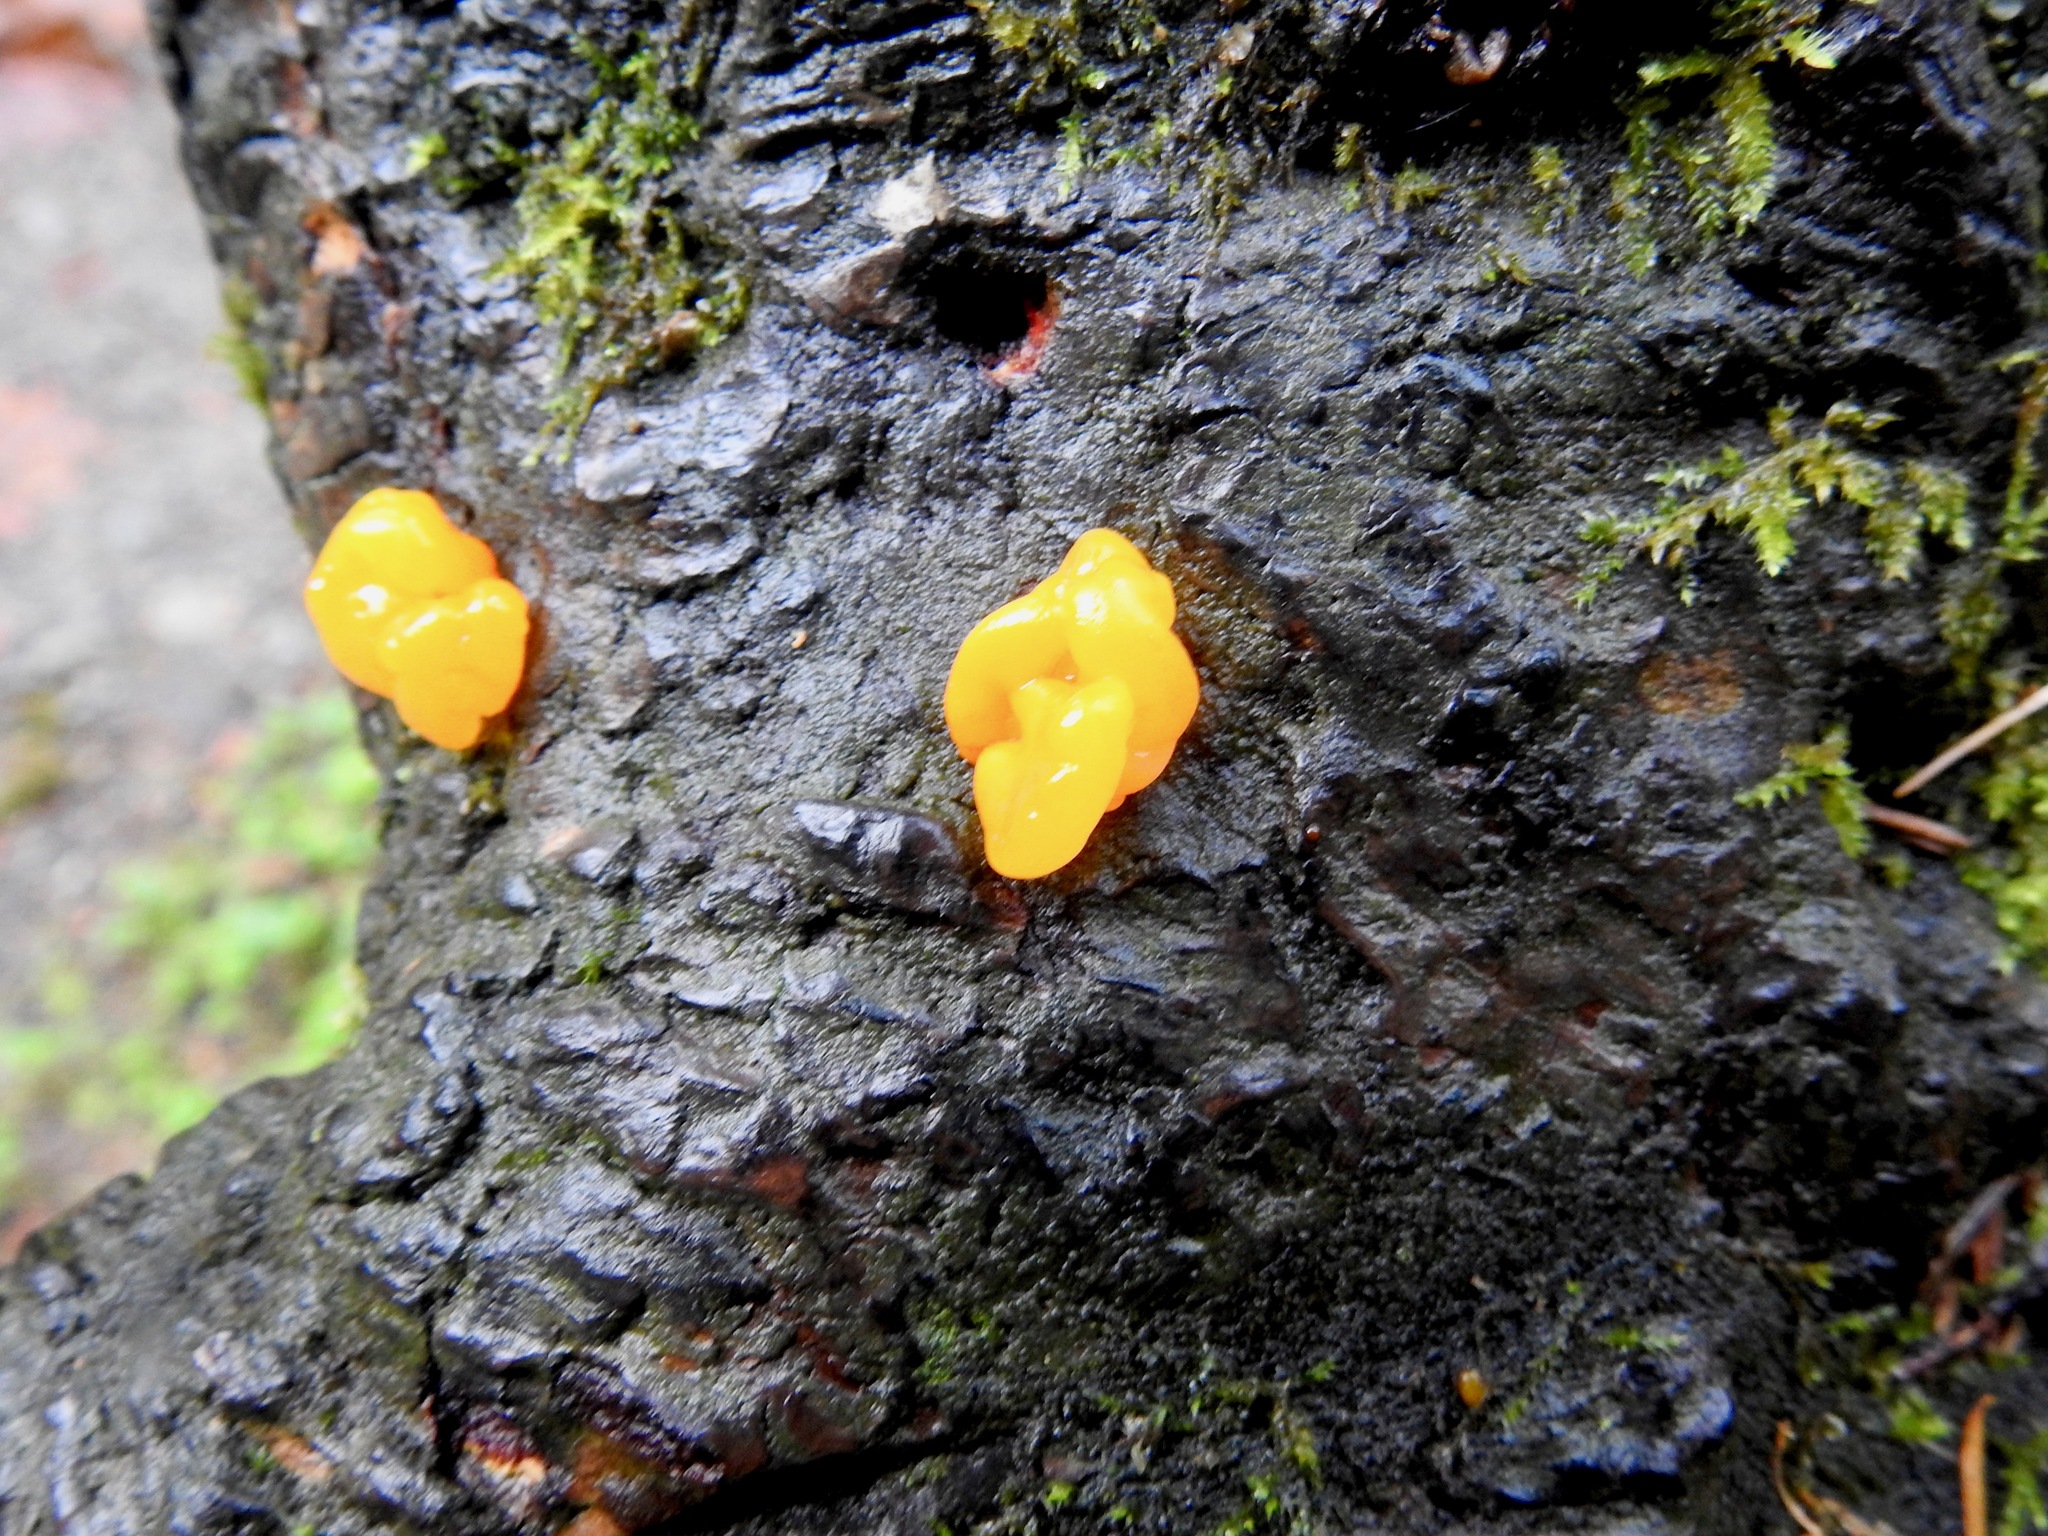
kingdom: Fungi
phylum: Basidiomycota
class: Dacrymycetes
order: Dacrymycetales
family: Dacrymycetaceae
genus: Dacrymyces
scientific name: Dacrymyces chrysospermus
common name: Orange jelly spot
